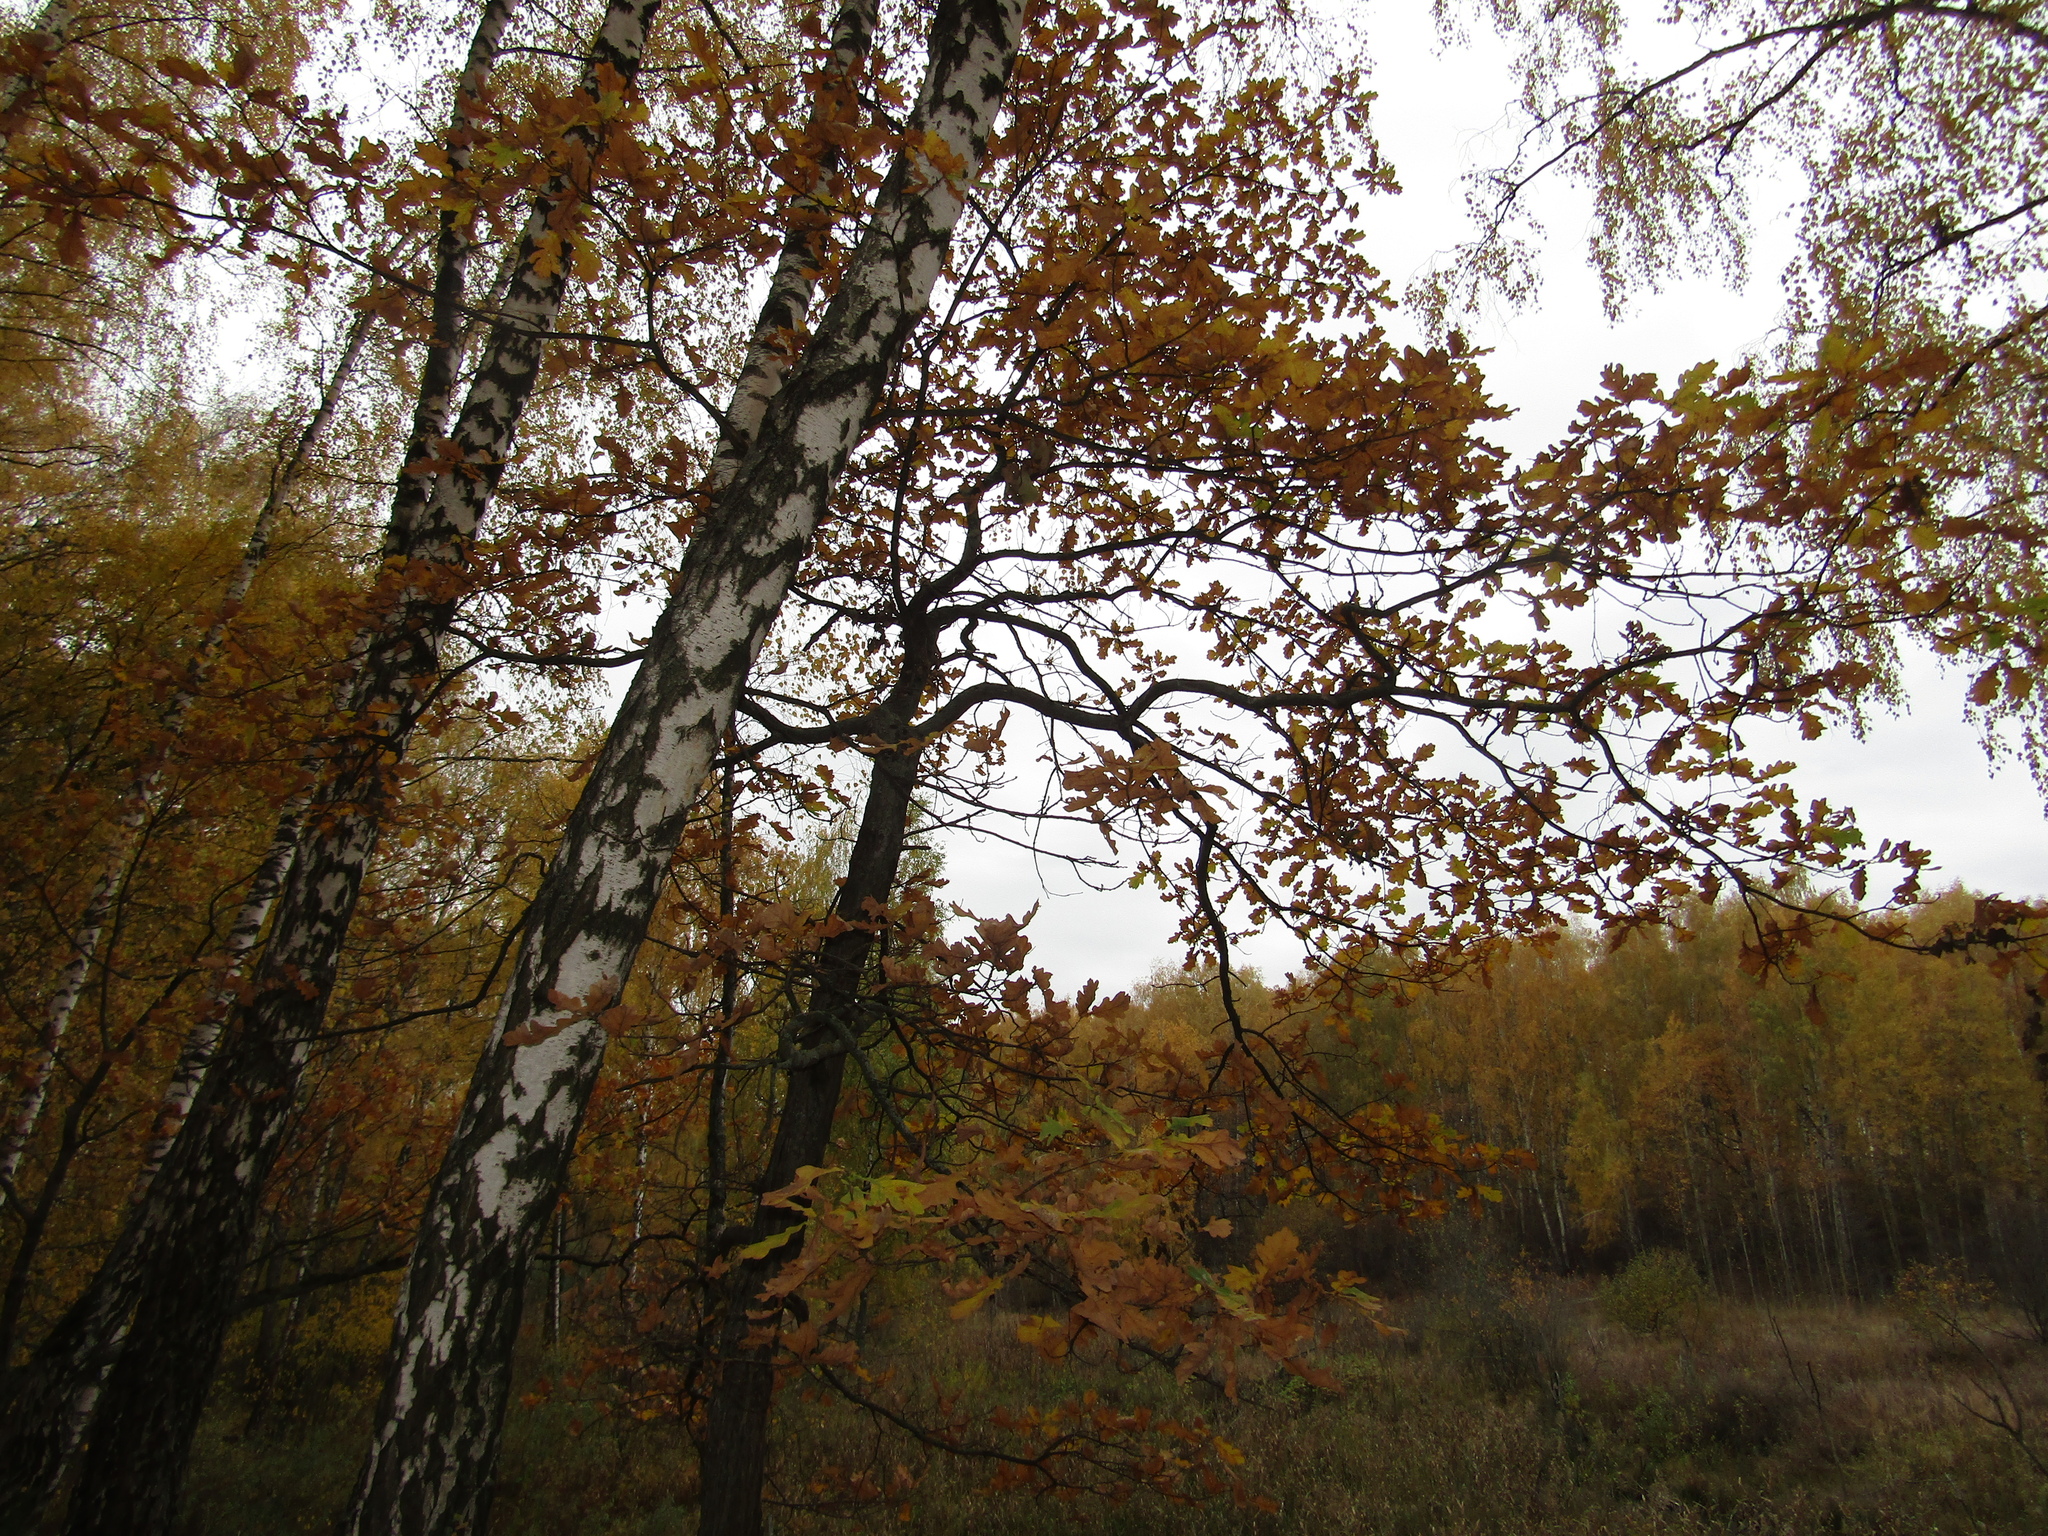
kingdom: Plantae
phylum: Tracheophyta
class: Magnoliopsida
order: Fagales
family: Fagaceae
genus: Quercus
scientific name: Quercus robur
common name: Pedunculate oak
